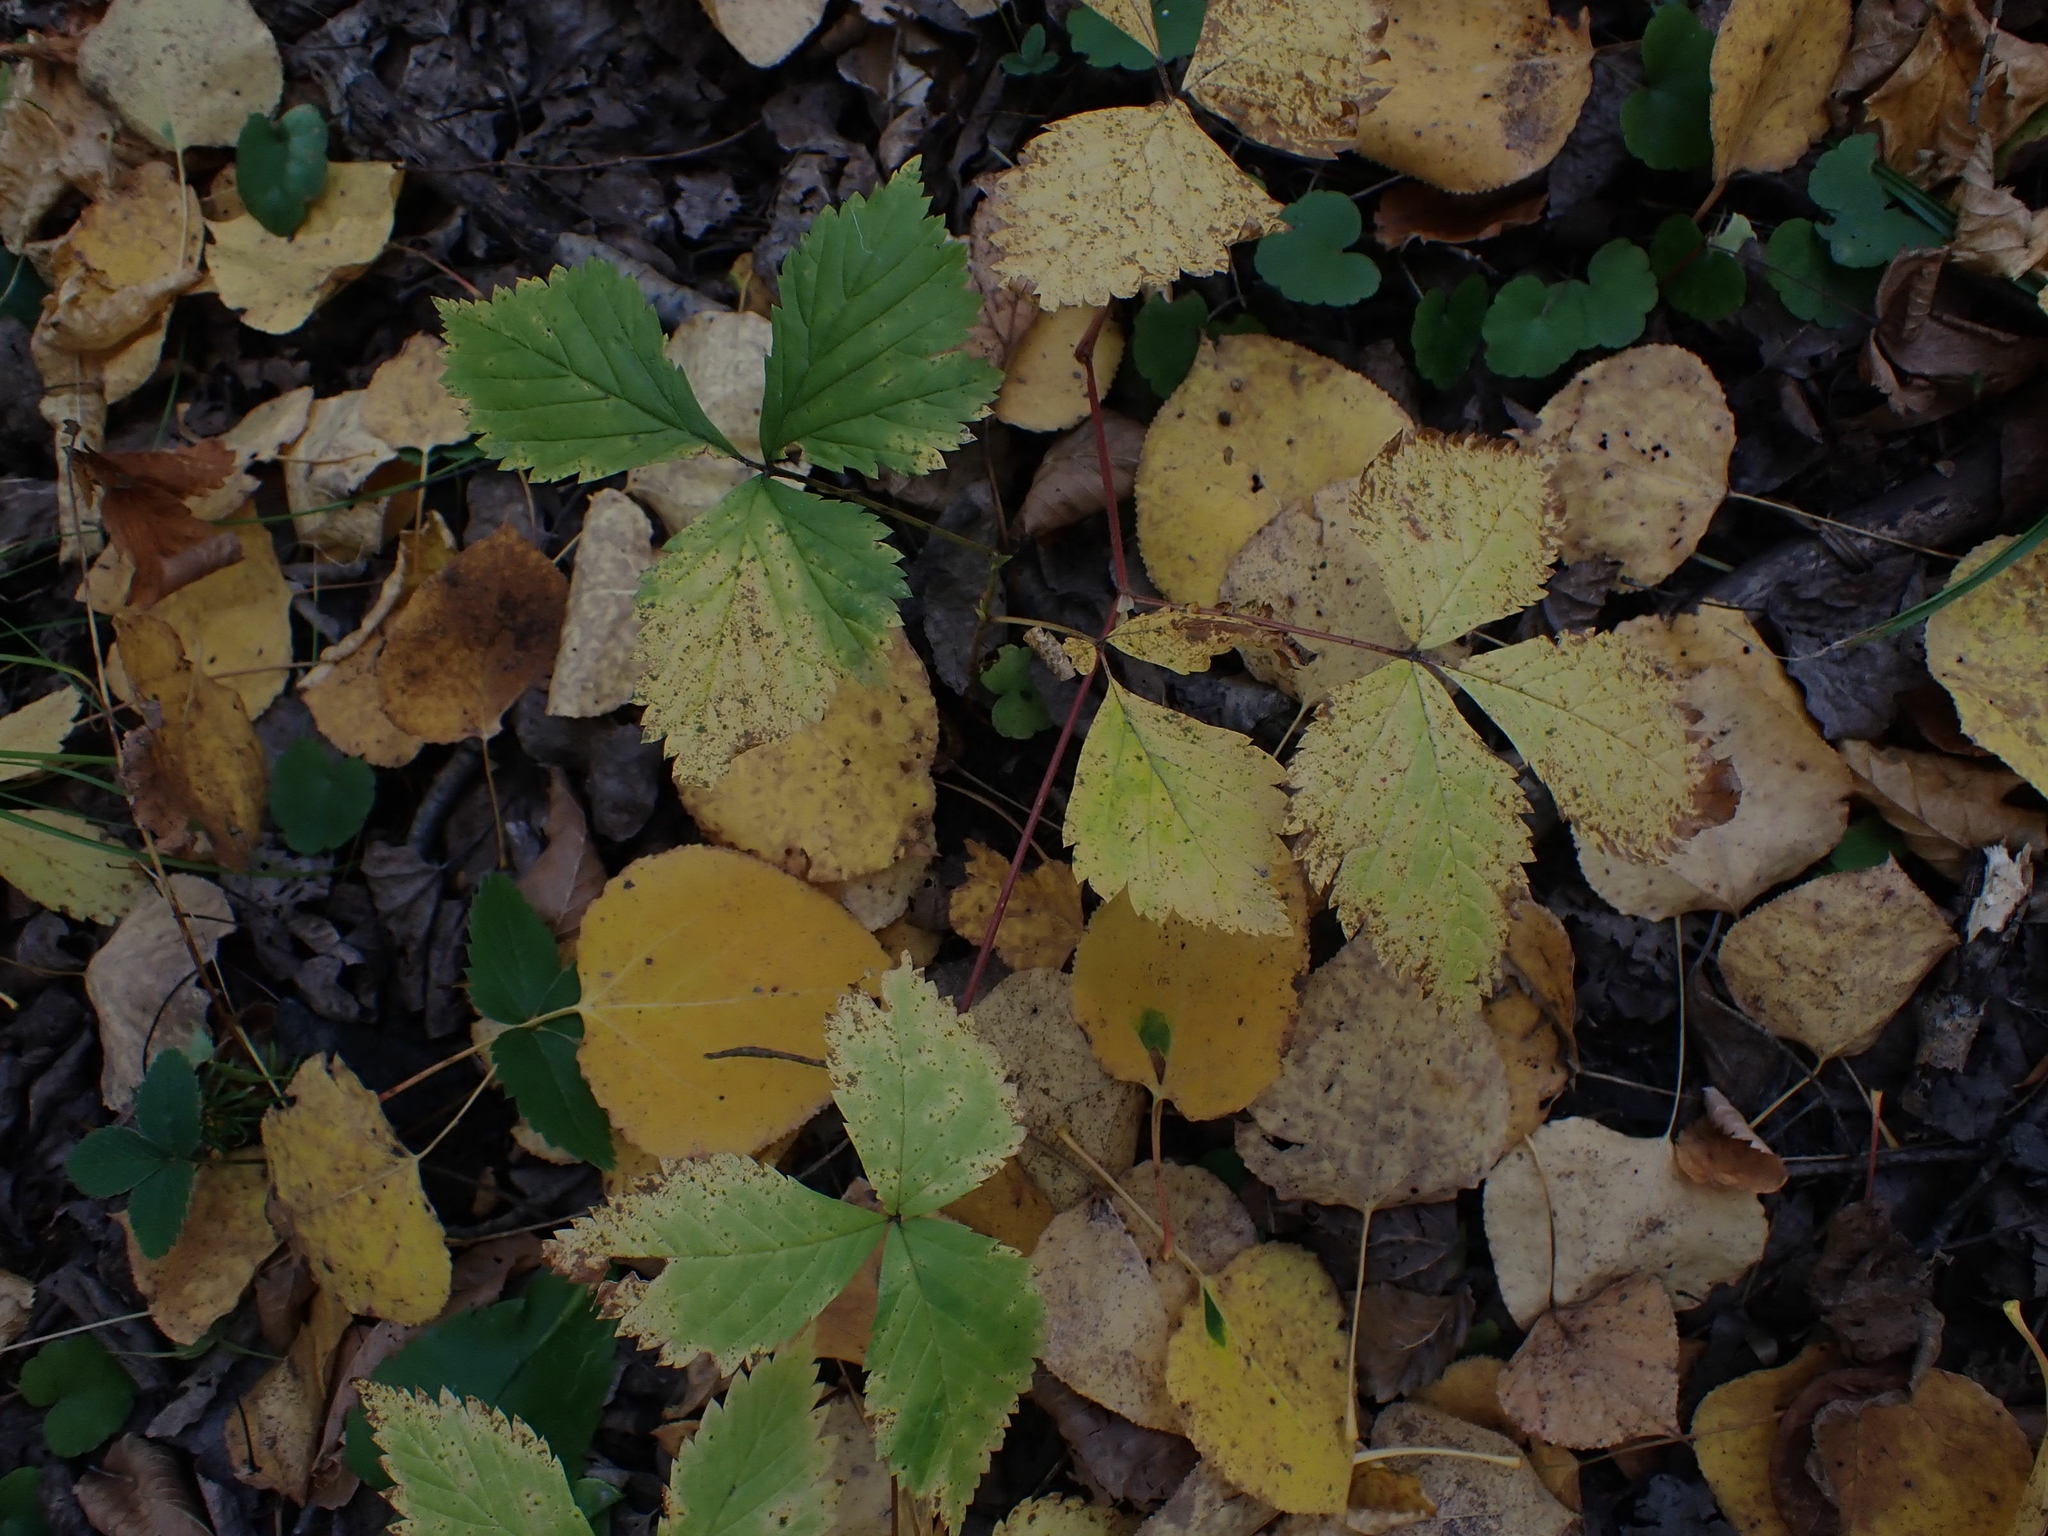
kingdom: Plantae
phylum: Tracheophyta
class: Magnoliopsida
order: Rosales
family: Rosaceae
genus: Rubus
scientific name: Rubus pubescens
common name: Dwarf raspberry
